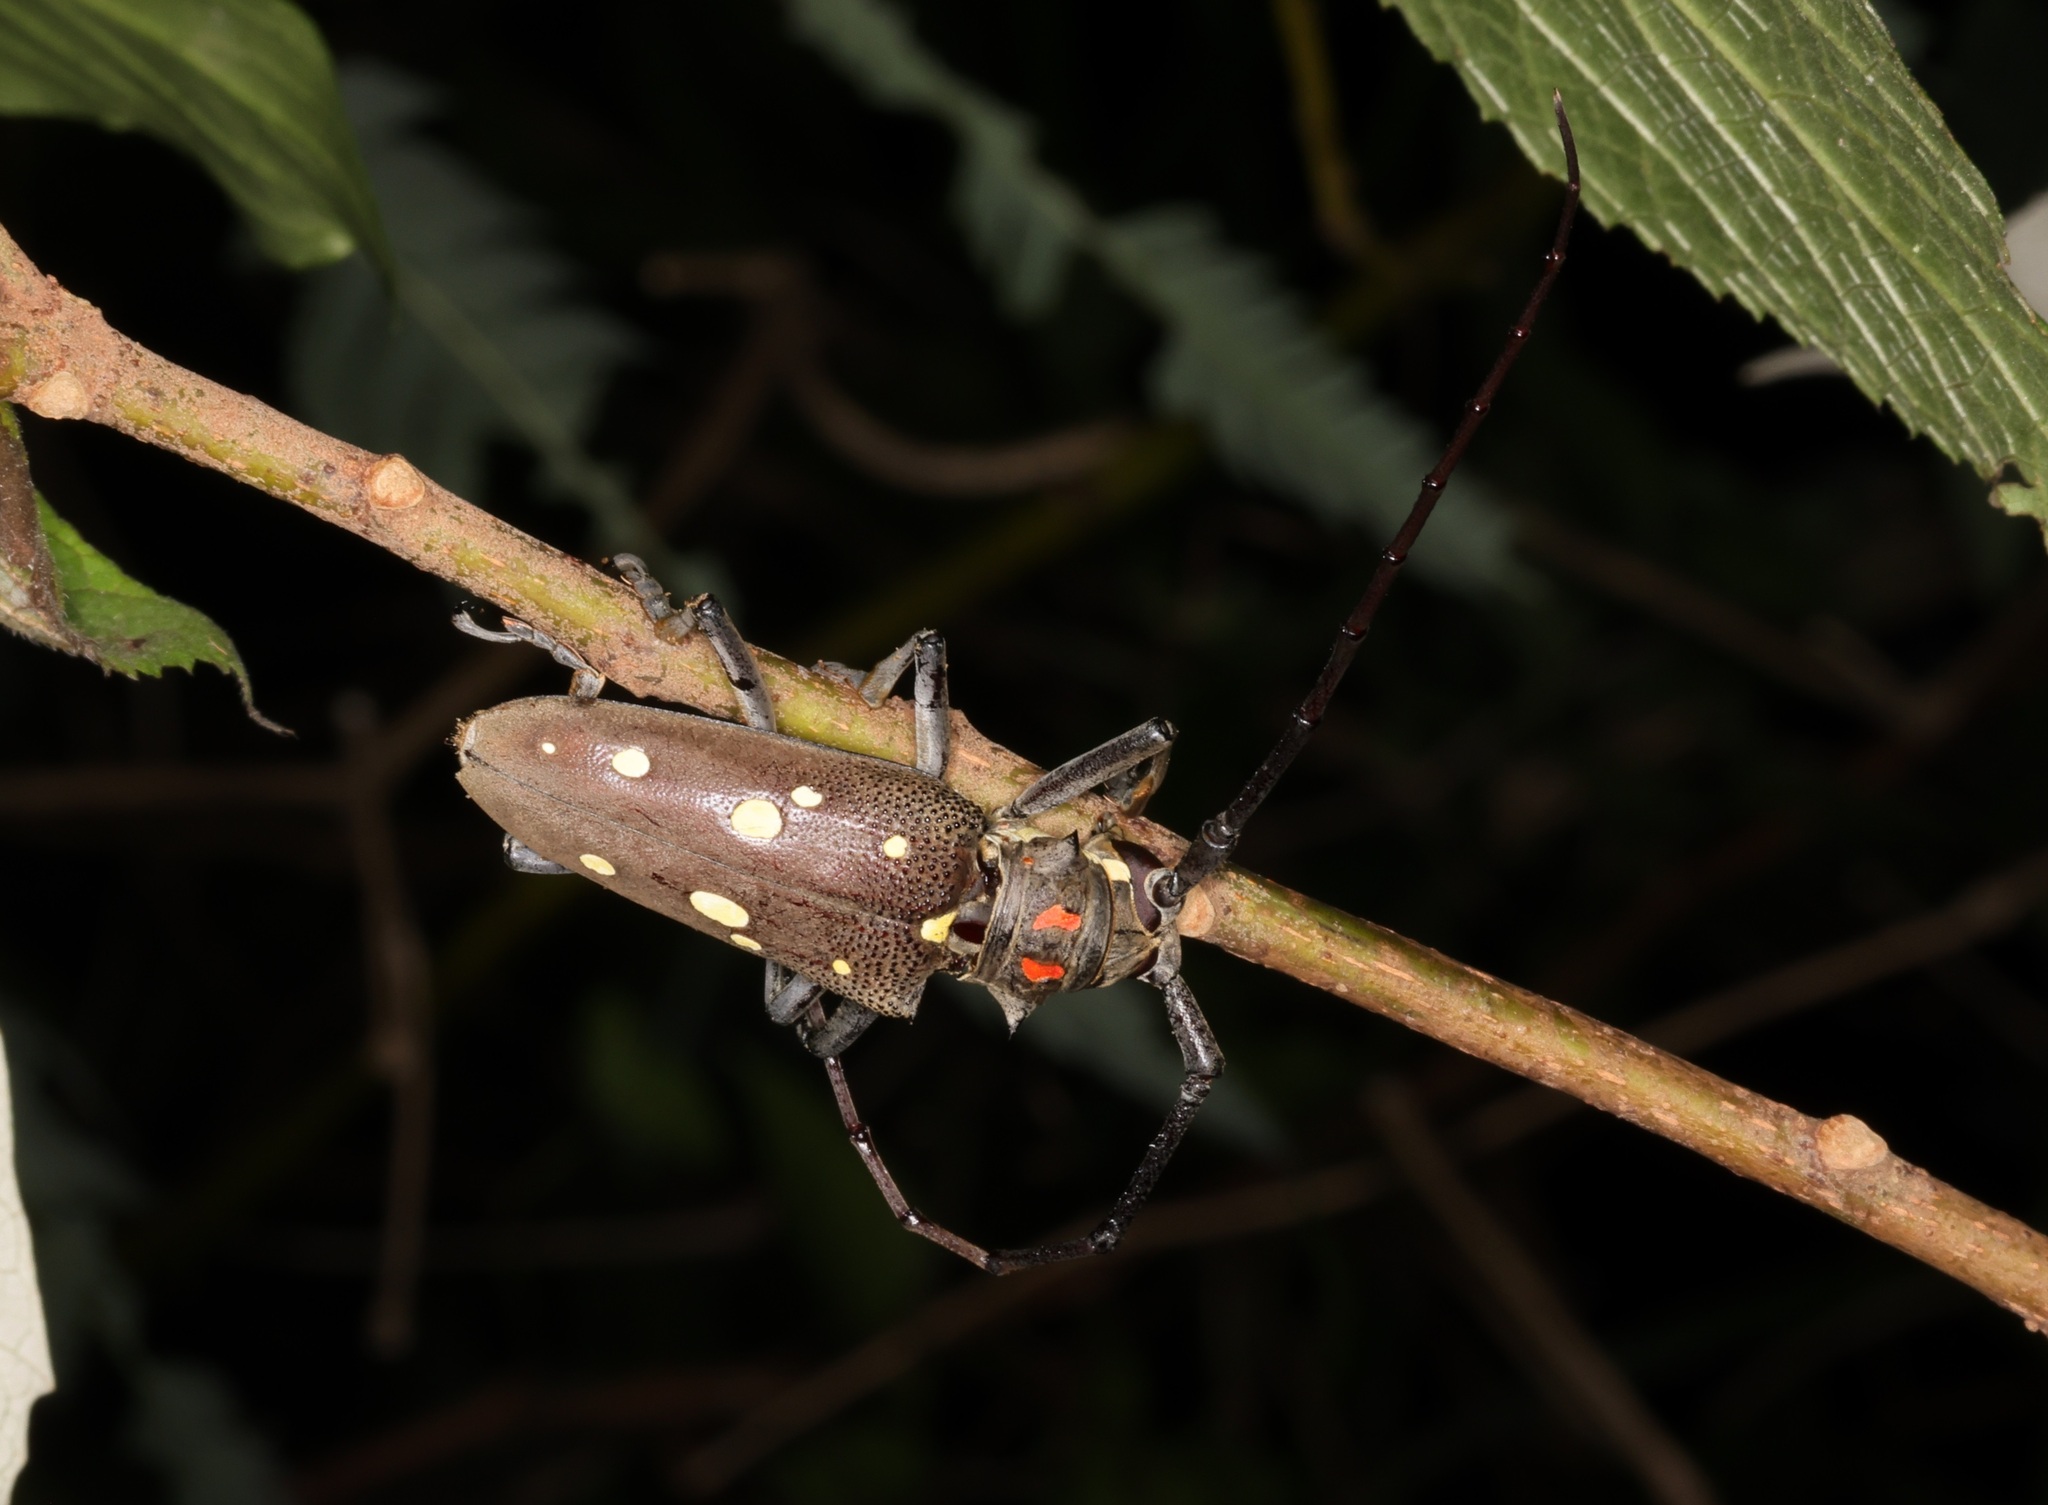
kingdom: Animalia
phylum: Arthropoda
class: Insecta
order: Coleoptera
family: Cerambycidae
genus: Batocera
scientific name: Batocera rubus
